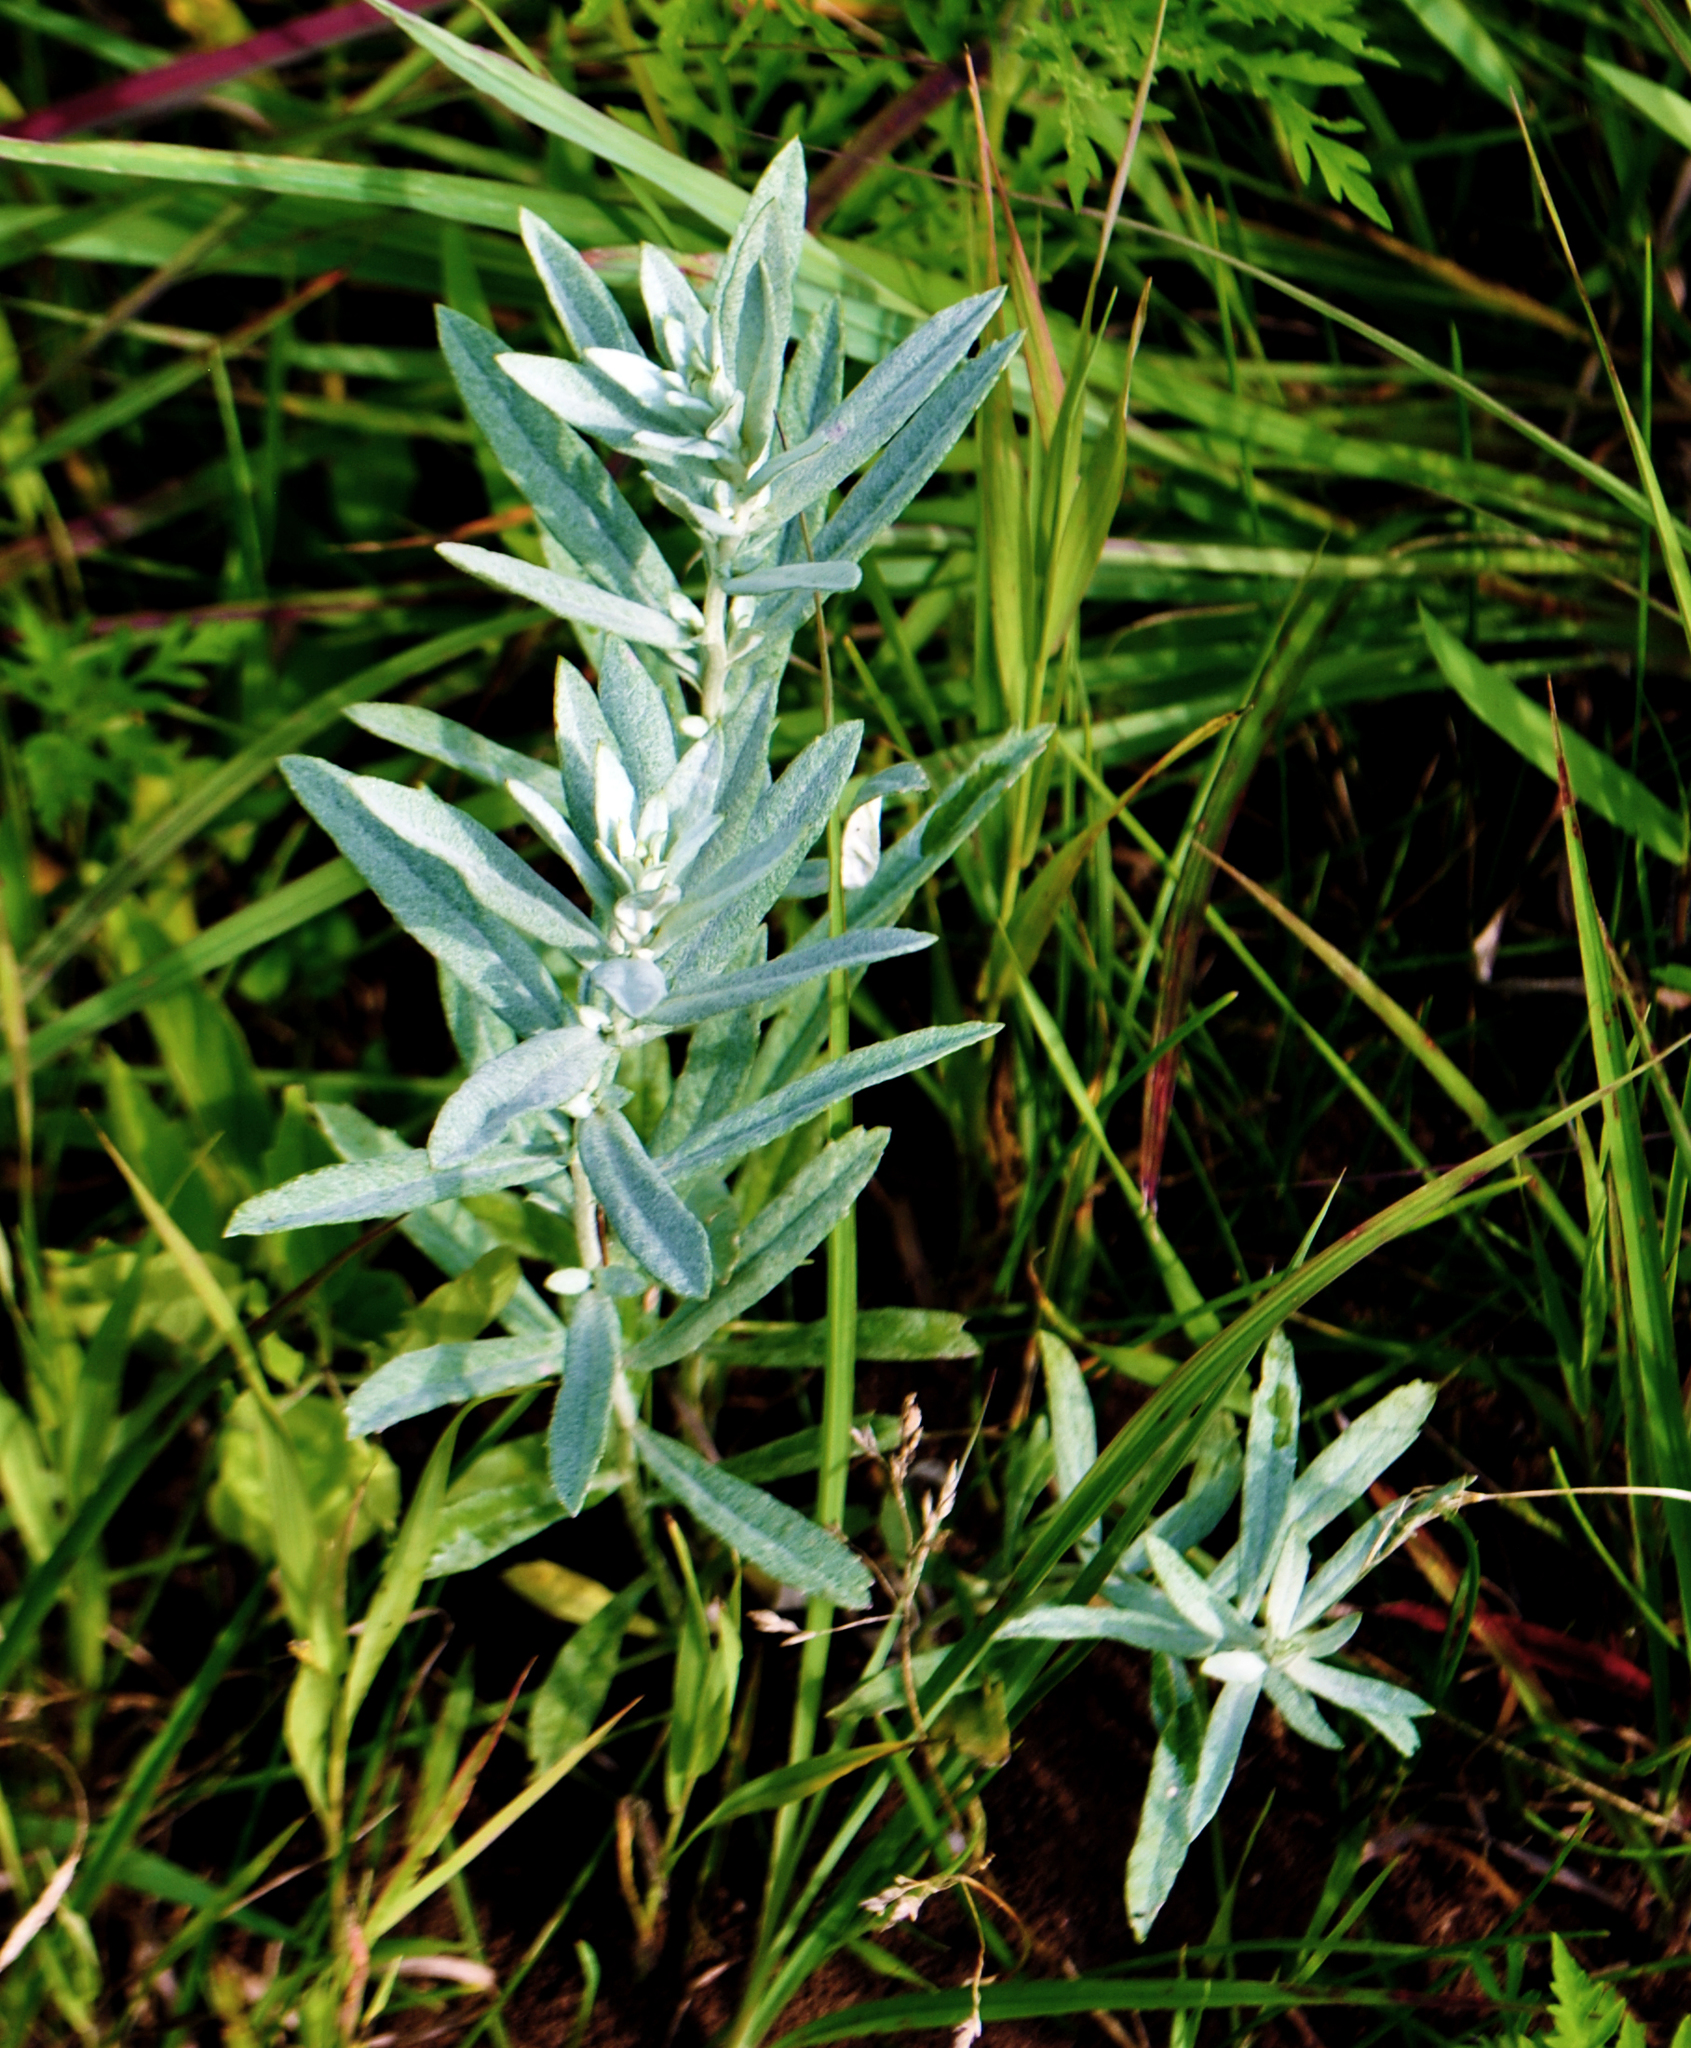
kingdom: Plantae
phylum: Tracheophyta
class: Magnoliopsida
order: Asterales
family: Asteraceae
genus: Artemisia
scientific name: Artemisia ludoviciana
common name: Western mugwort
